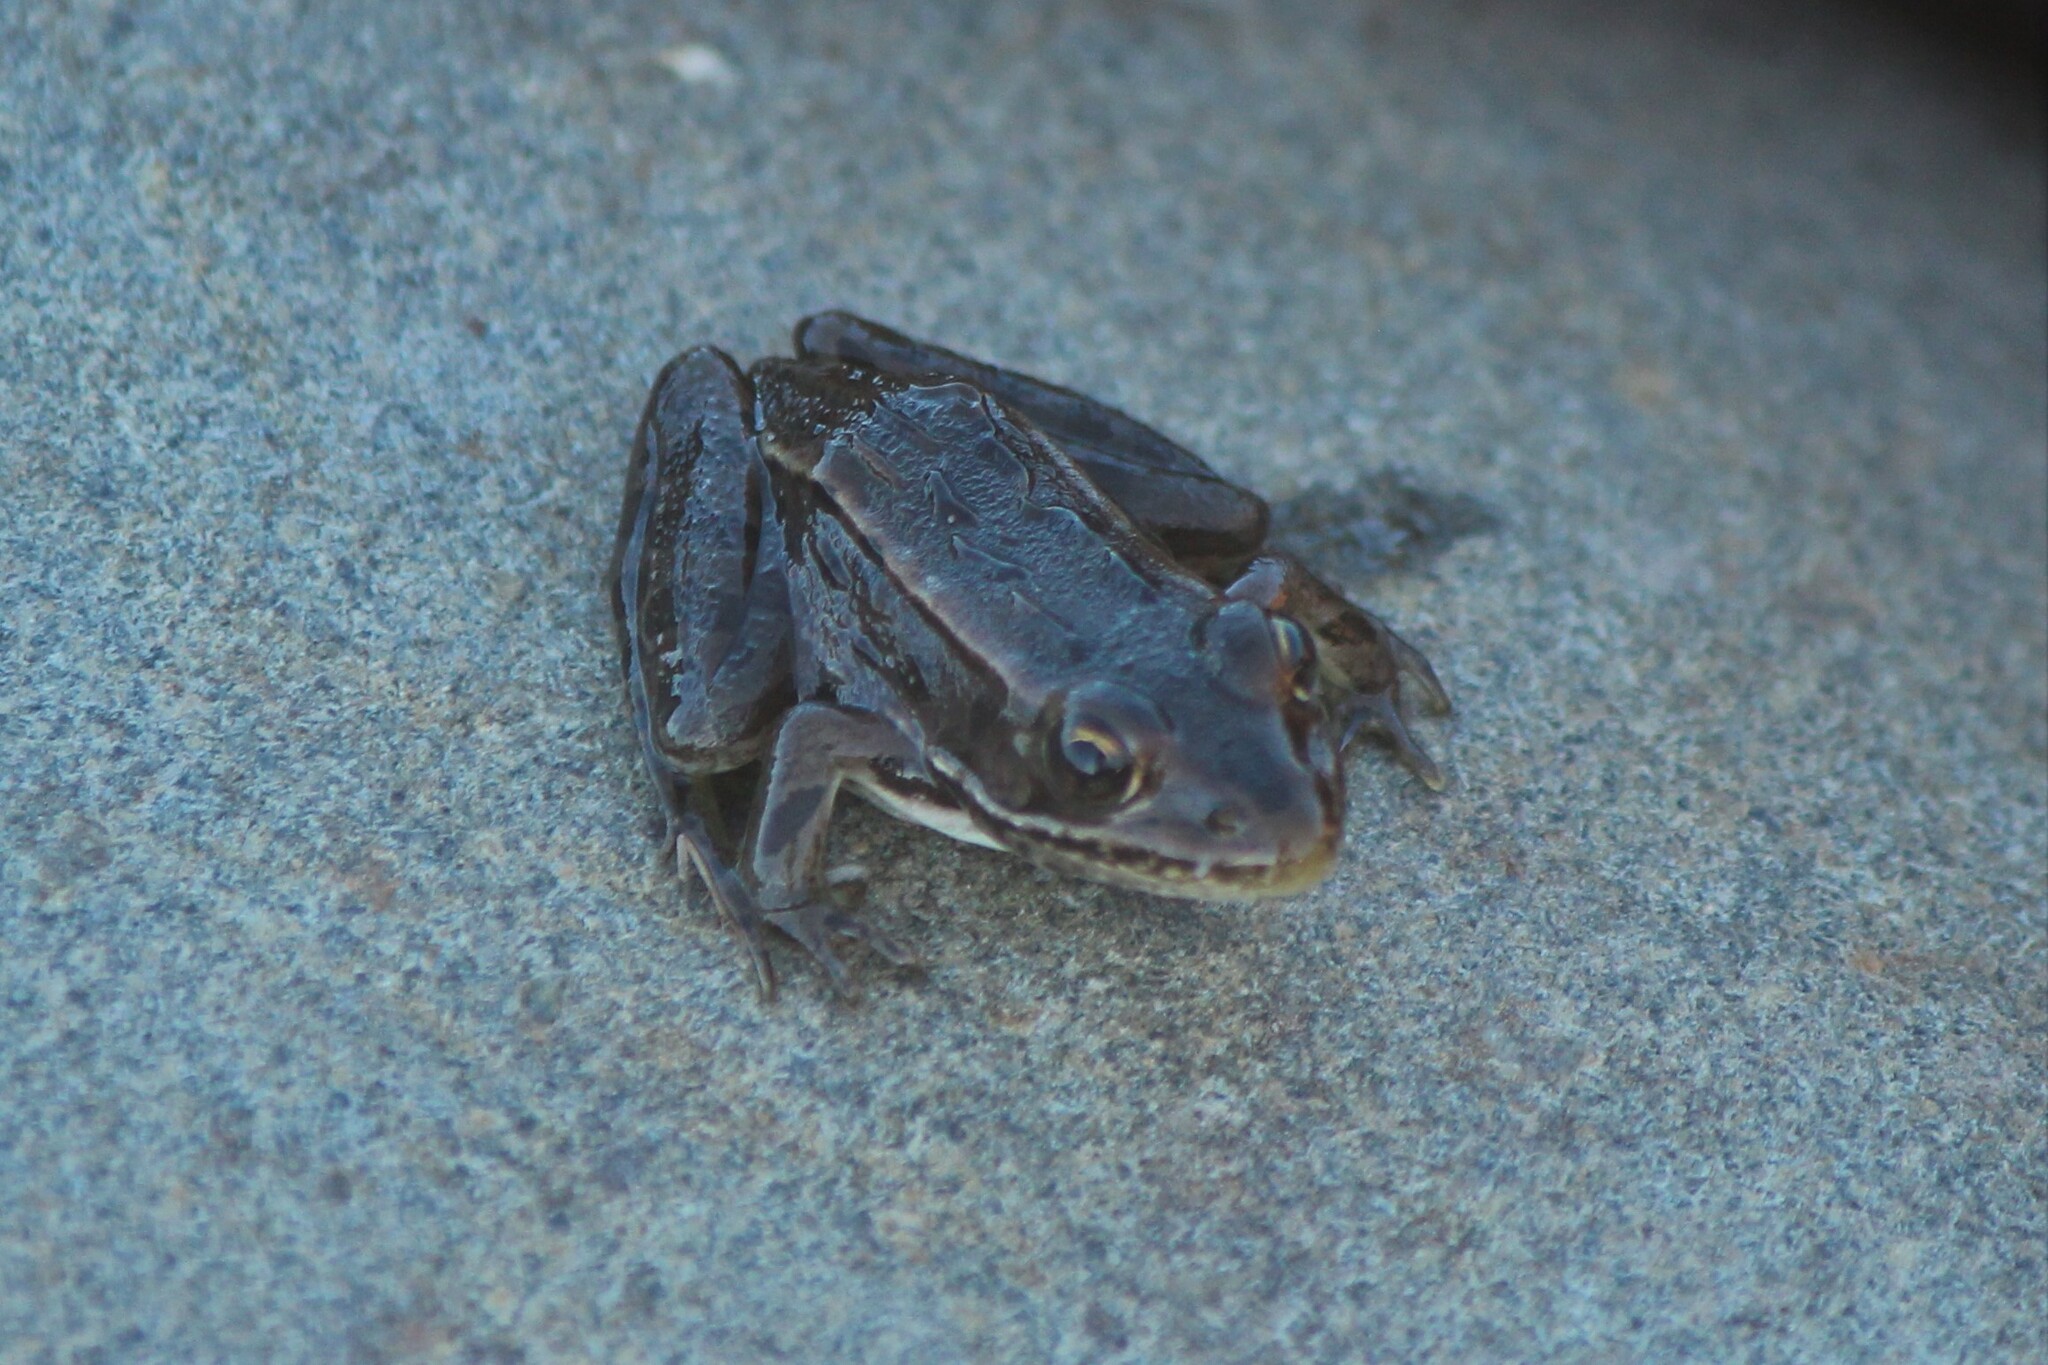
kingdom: Animalia
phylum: Chordata
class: Amphibia
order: Anura
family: Ranidae
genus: Lithobates
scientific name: Lithobates clamitans
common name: Green frog
